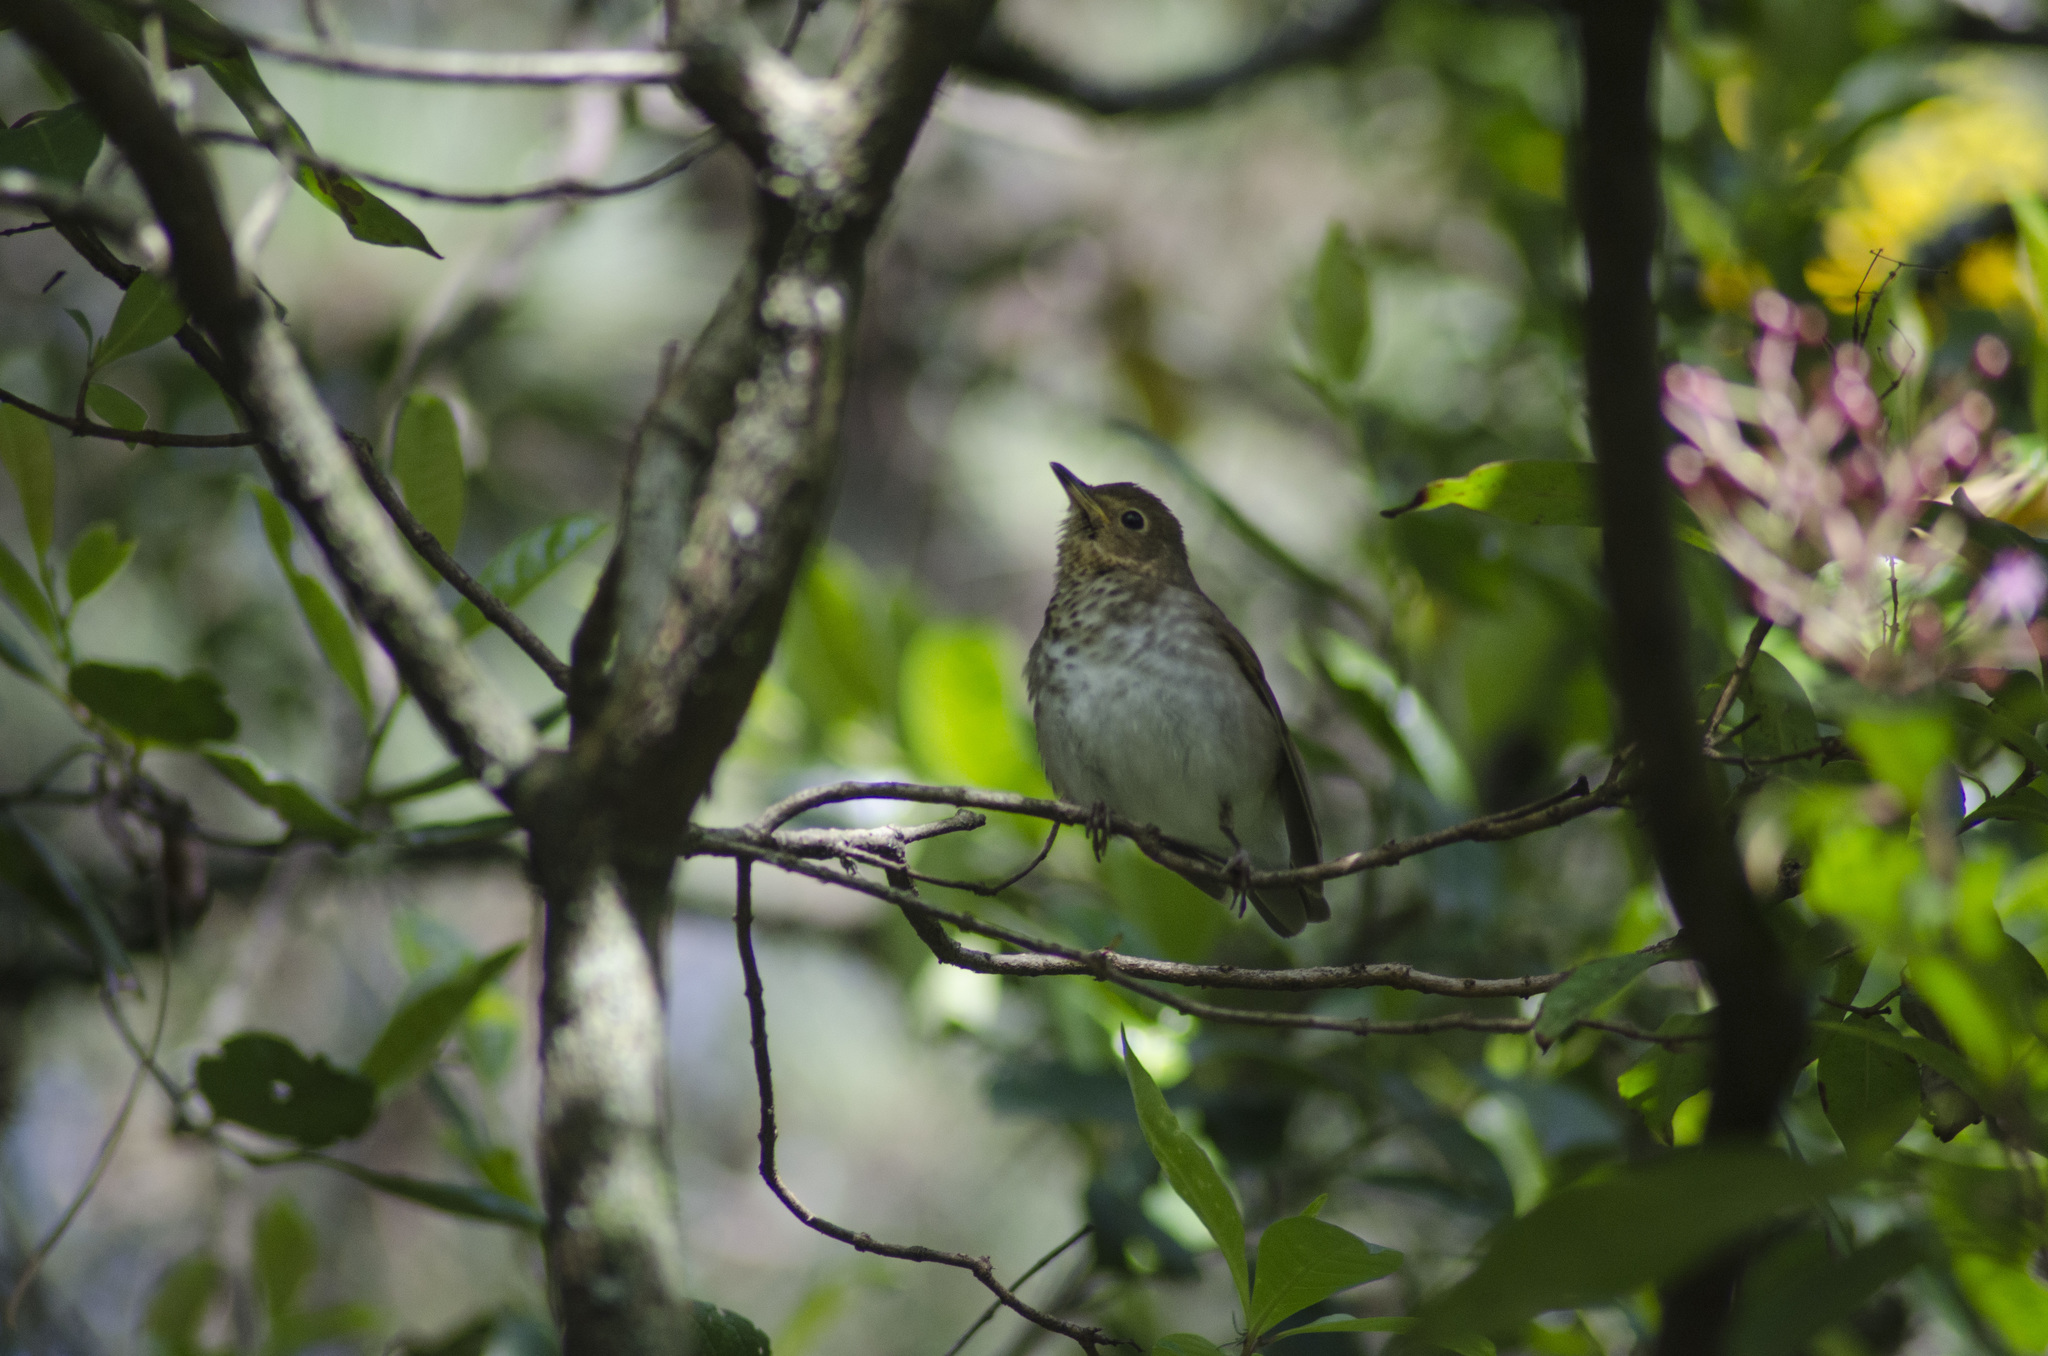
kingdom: Animalia
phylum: Chordata
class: Aves
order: Passeriformes
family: Turdidae
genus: Catharus
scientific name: Catharus ustulatus
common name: Swainson's thrush
